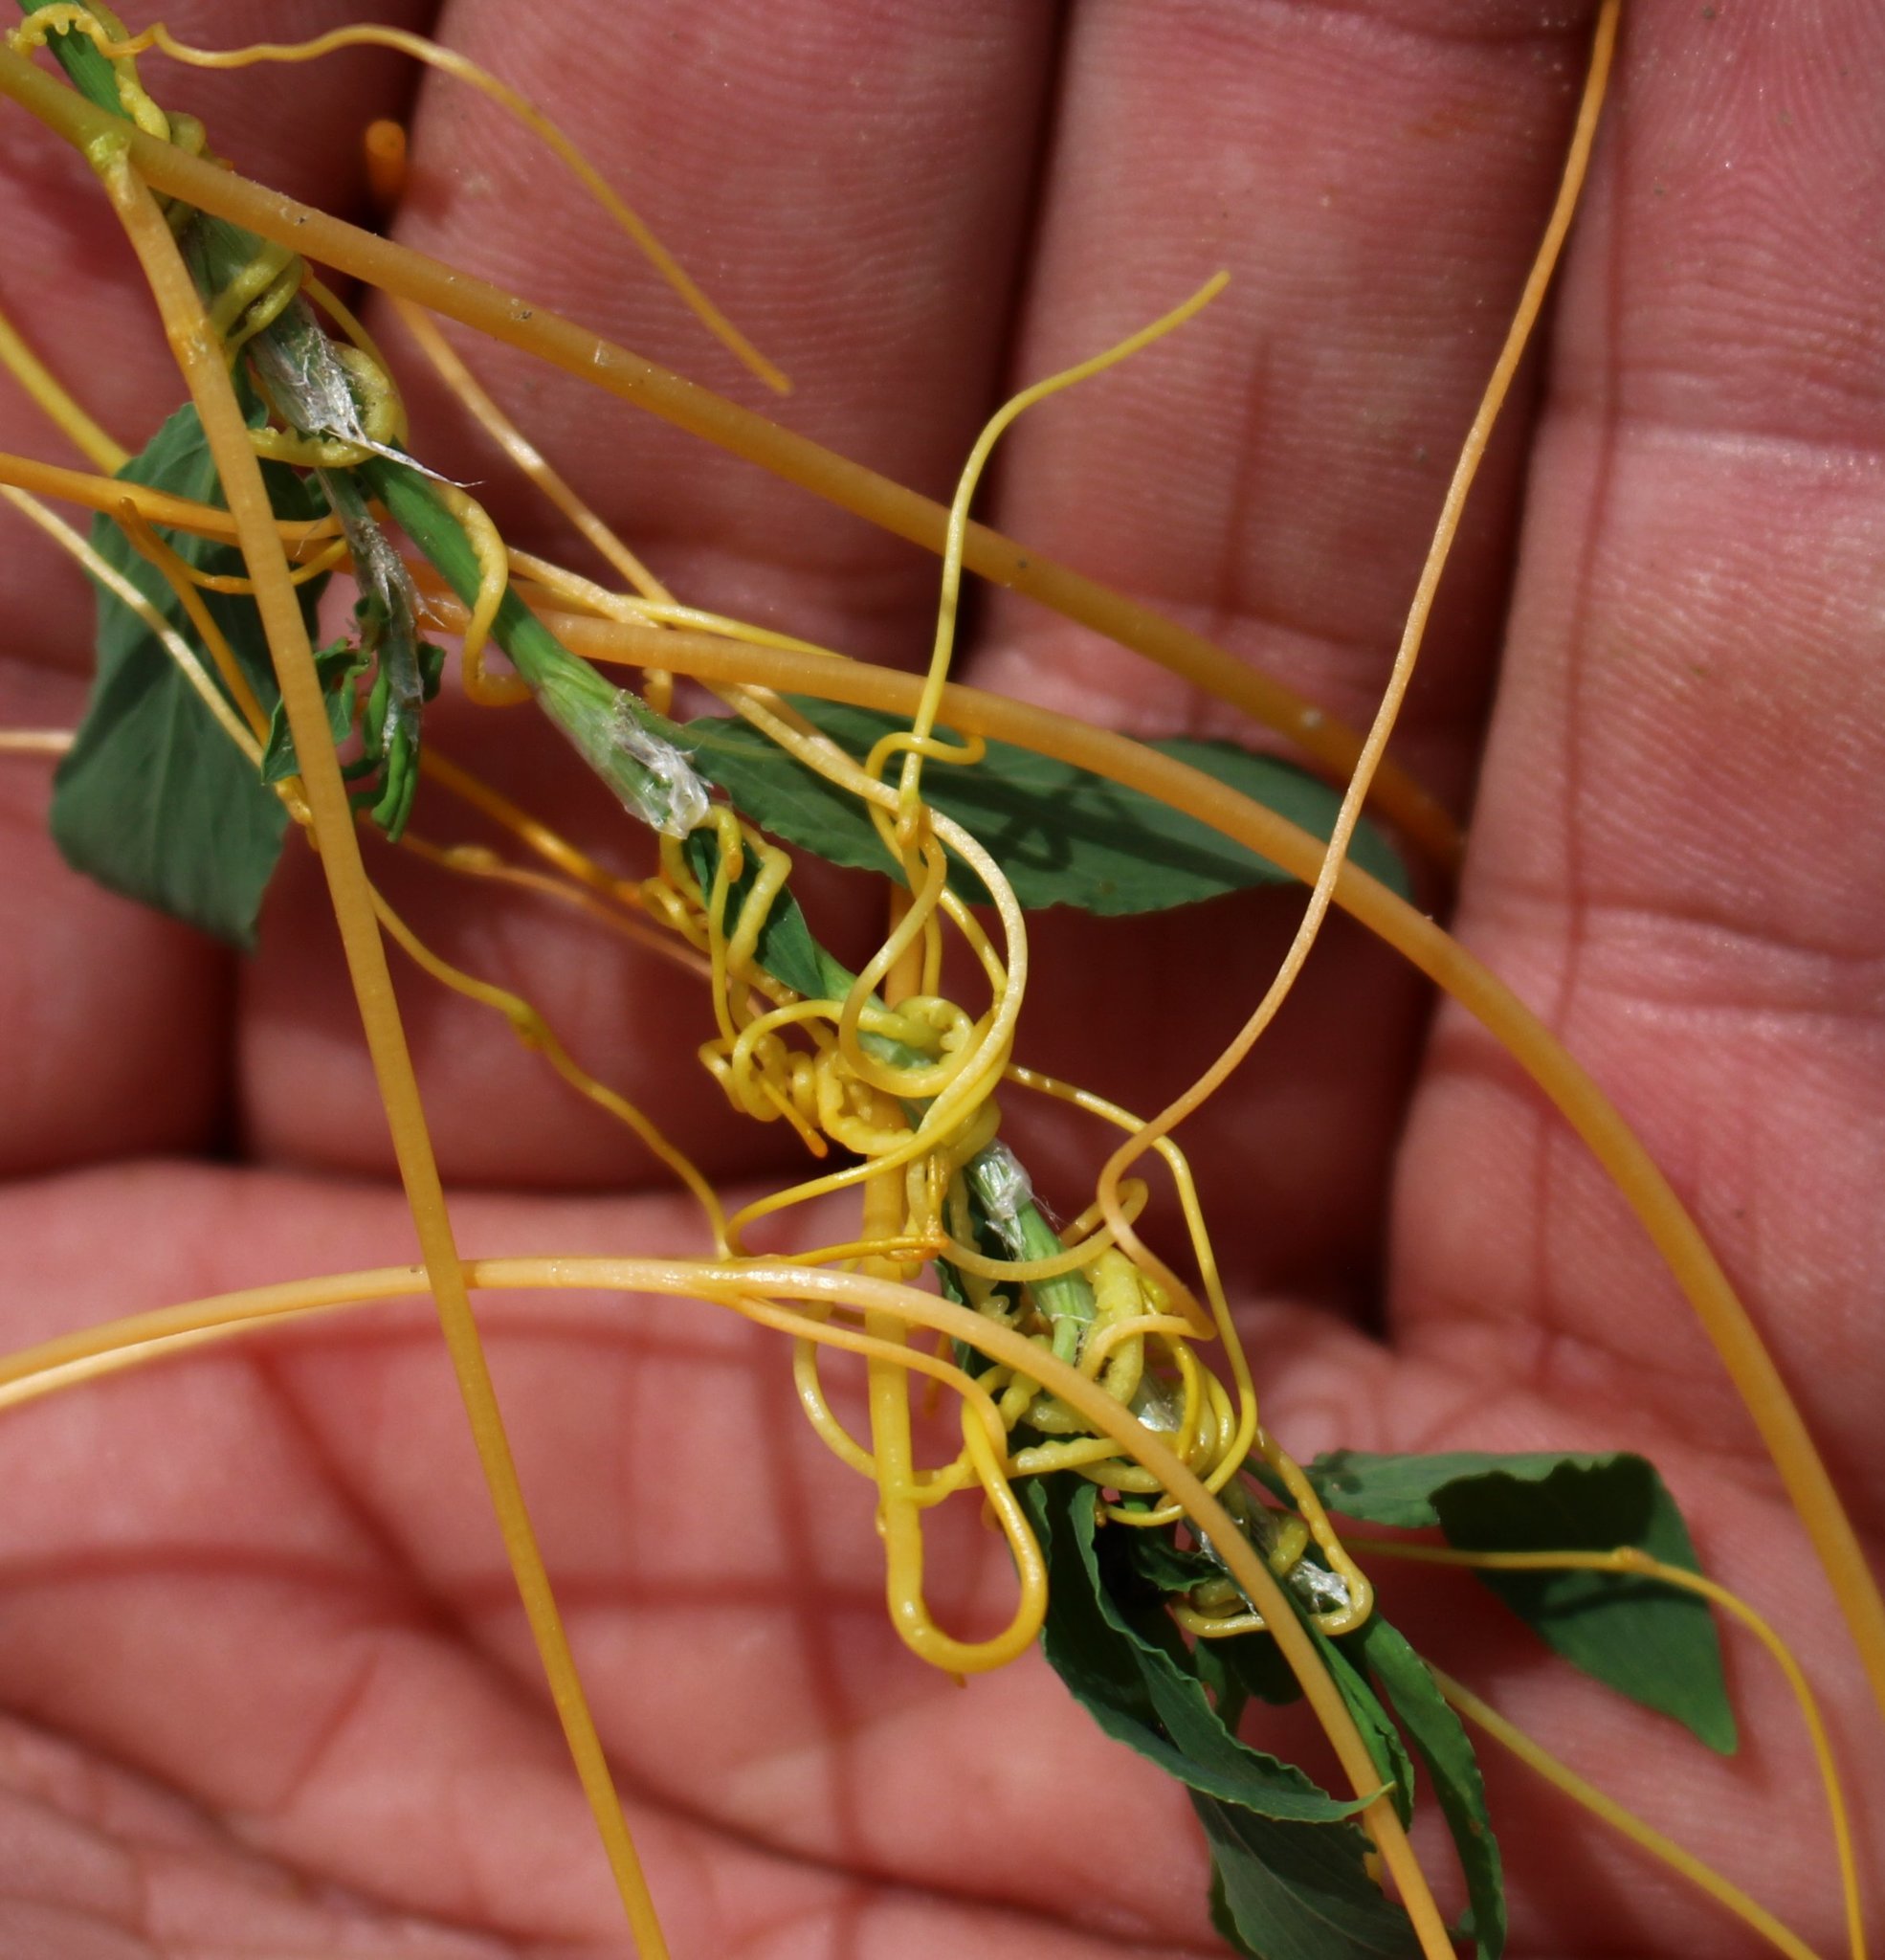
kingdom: Plantae
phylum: Tracheophyta
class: Magnoliopsida
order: Solanales
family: Convolvulaceae
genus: Cuscuta
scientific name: Cuscuta campestris
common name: Yellow dodder
